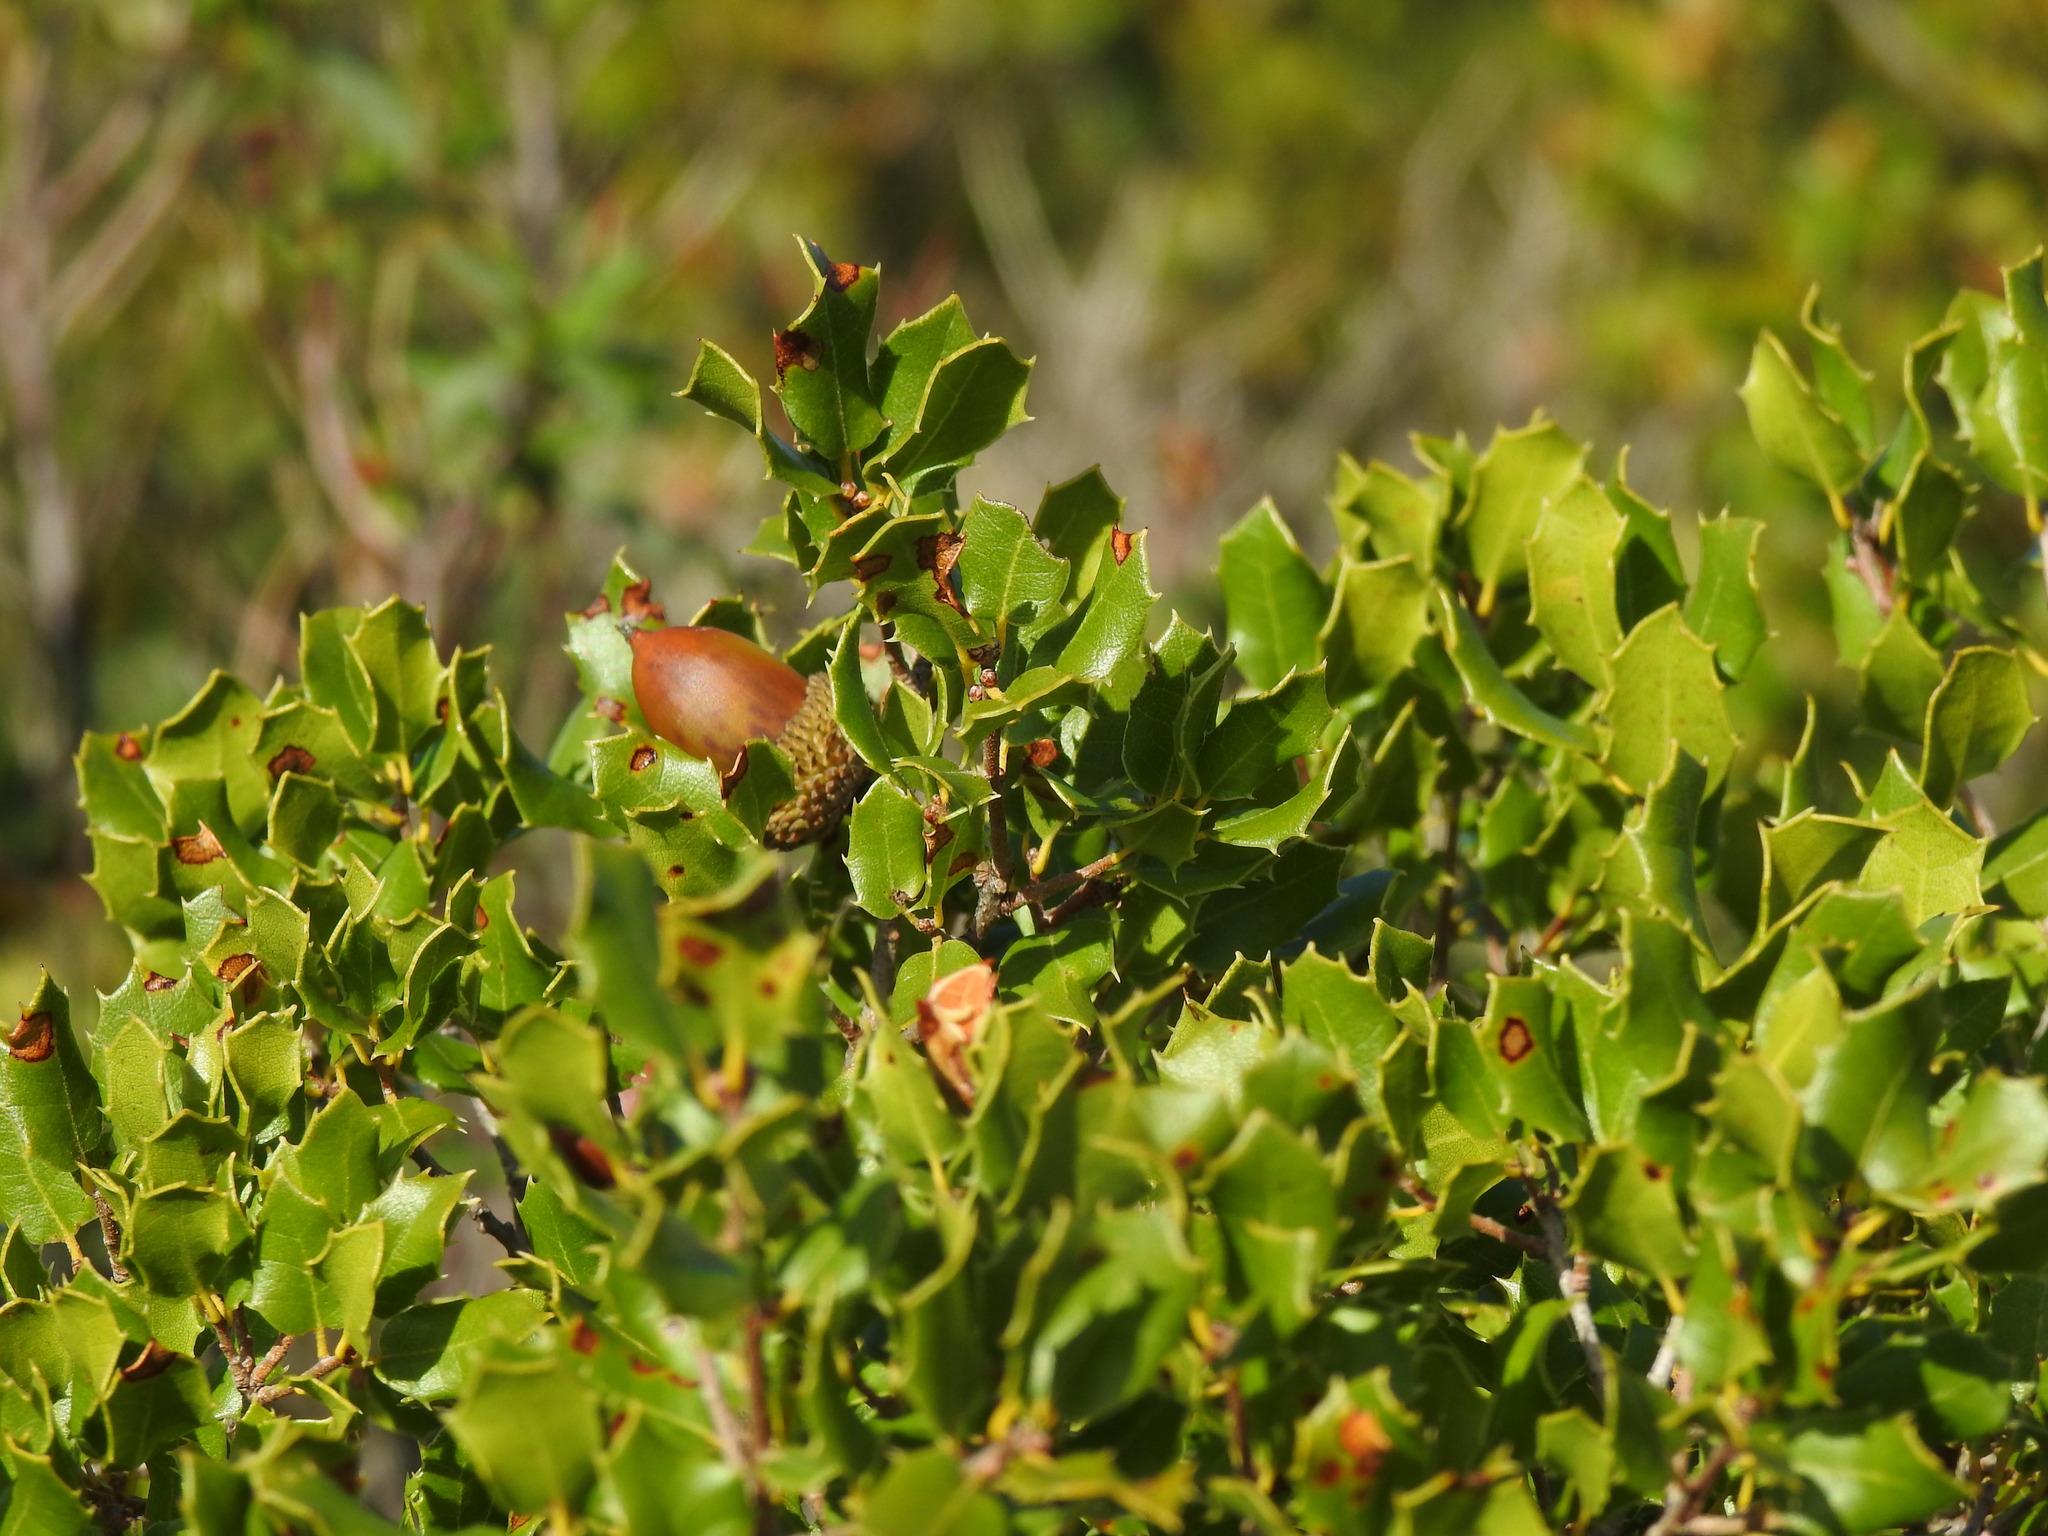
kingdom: Plantae
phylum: Tracheophyta
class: Magnoliopsida
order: Fagales
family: Fagaceae
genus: Quercus
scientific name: Quercus coccifera
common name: Kermes oak
